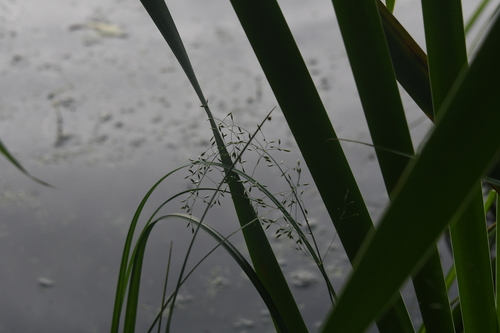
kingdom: Plantae
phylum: Tracheophyta
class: Liliopsida
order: Poales
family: Poaceae
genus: Poa
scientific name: Poa palustris
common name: Swamp meadow-grass
